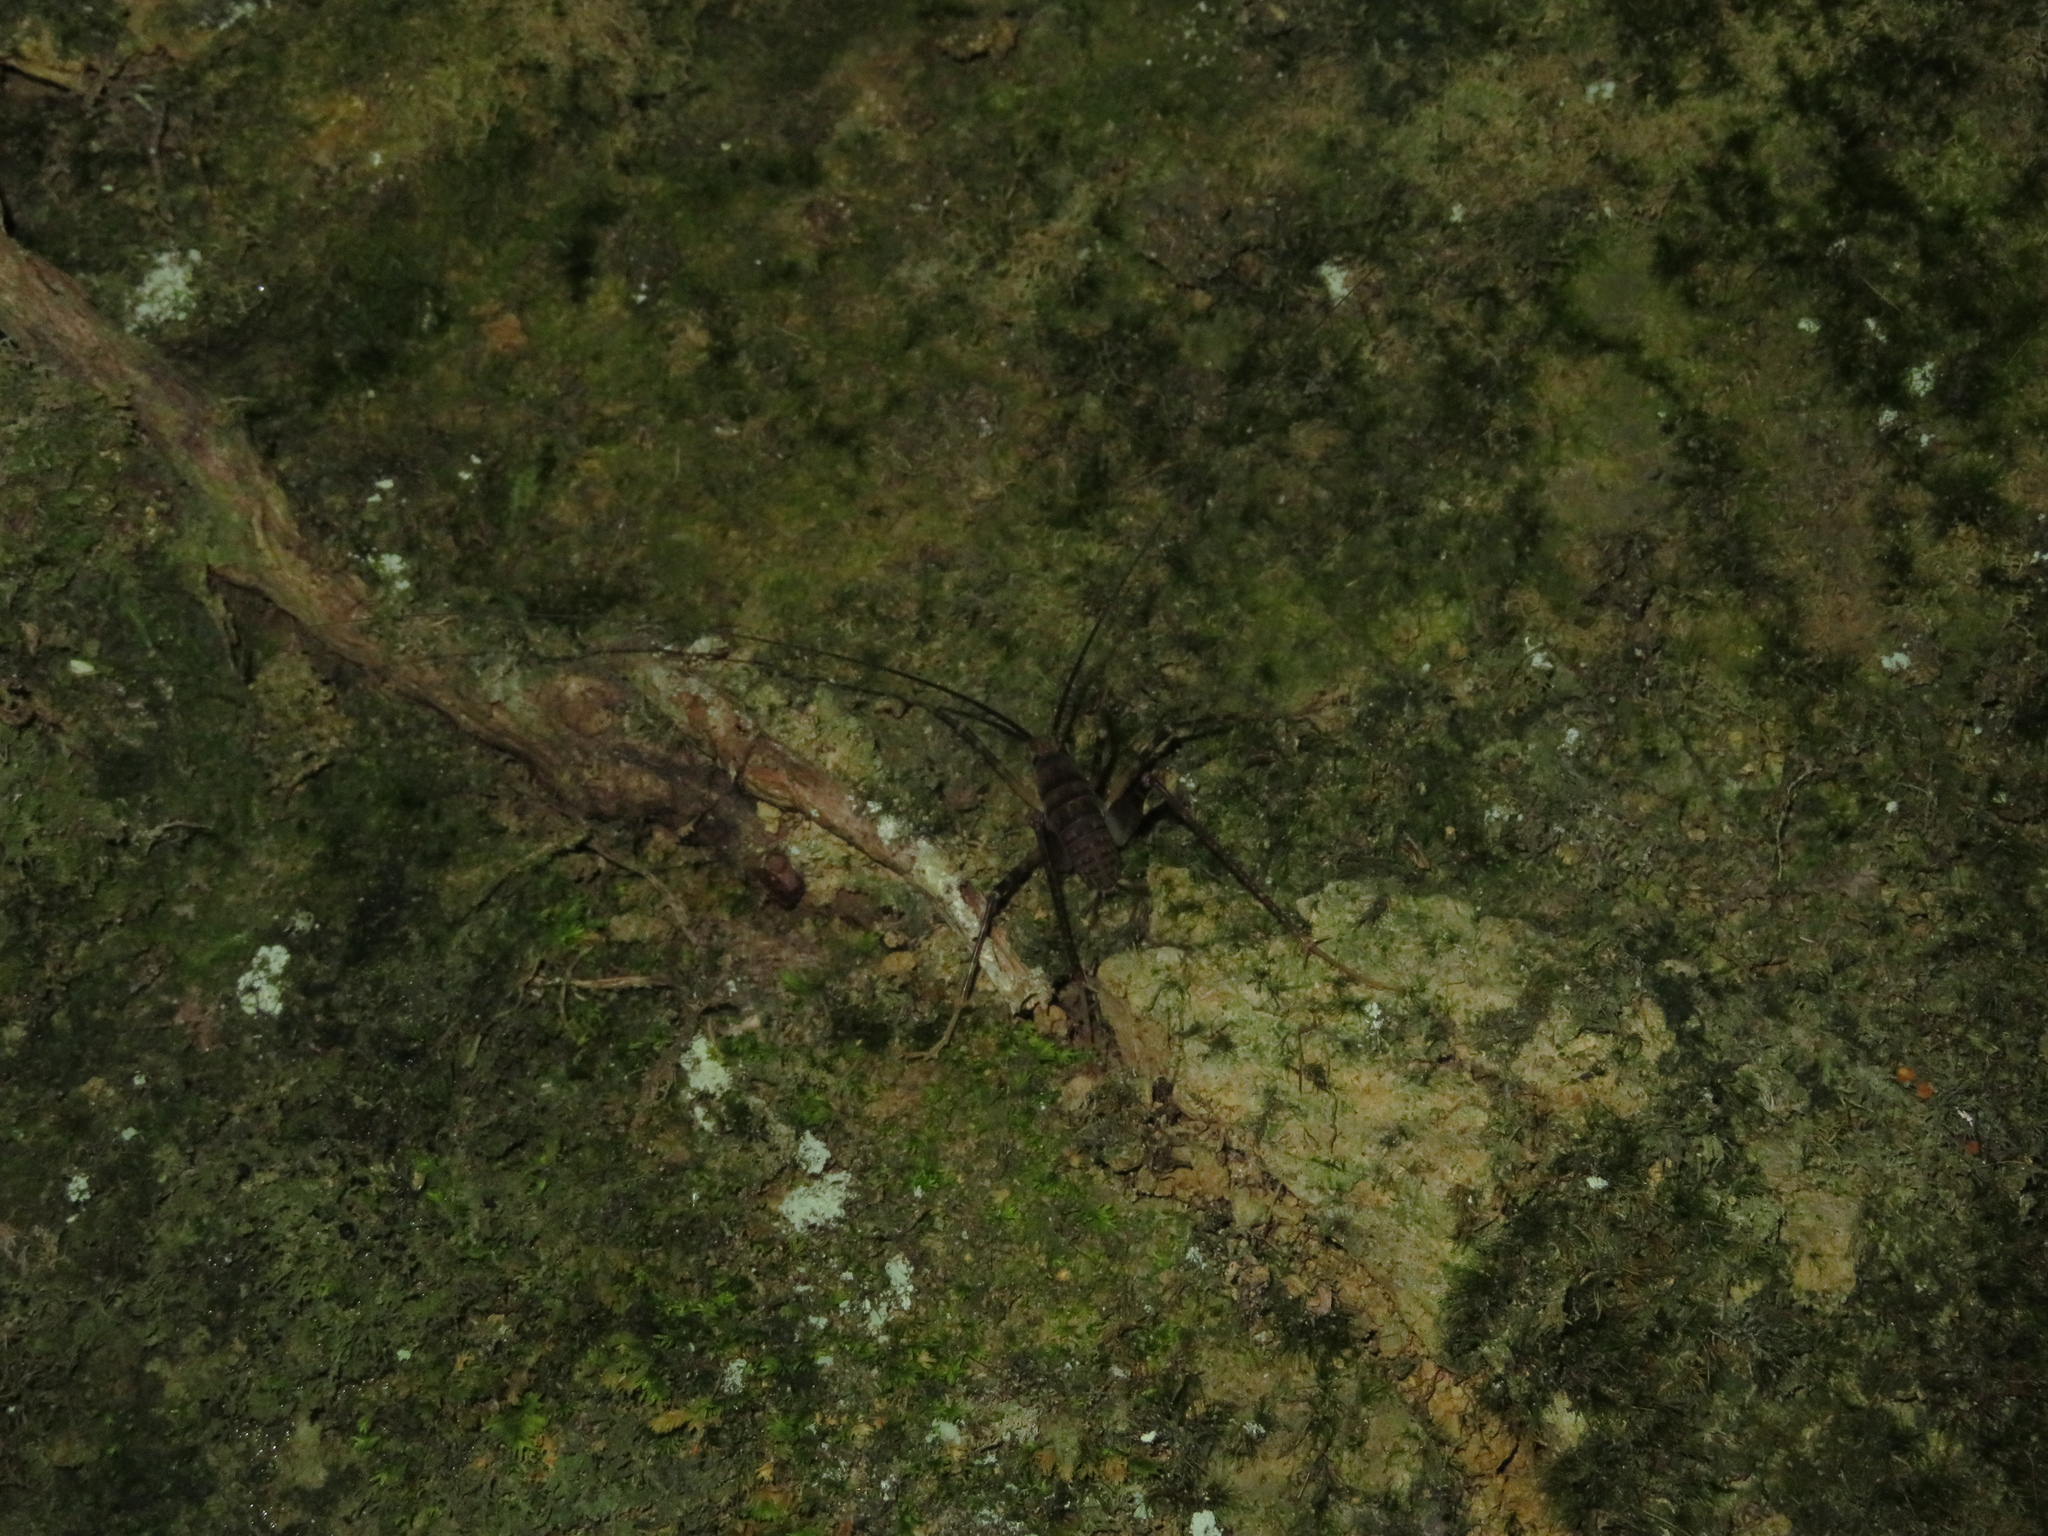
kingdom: Animalia
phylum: Arthropoda
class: Insecta
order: Orthoptera
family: Rhaphidophoridae
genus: Pachyrhamma
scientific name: Pachyrhamma edwardsii
